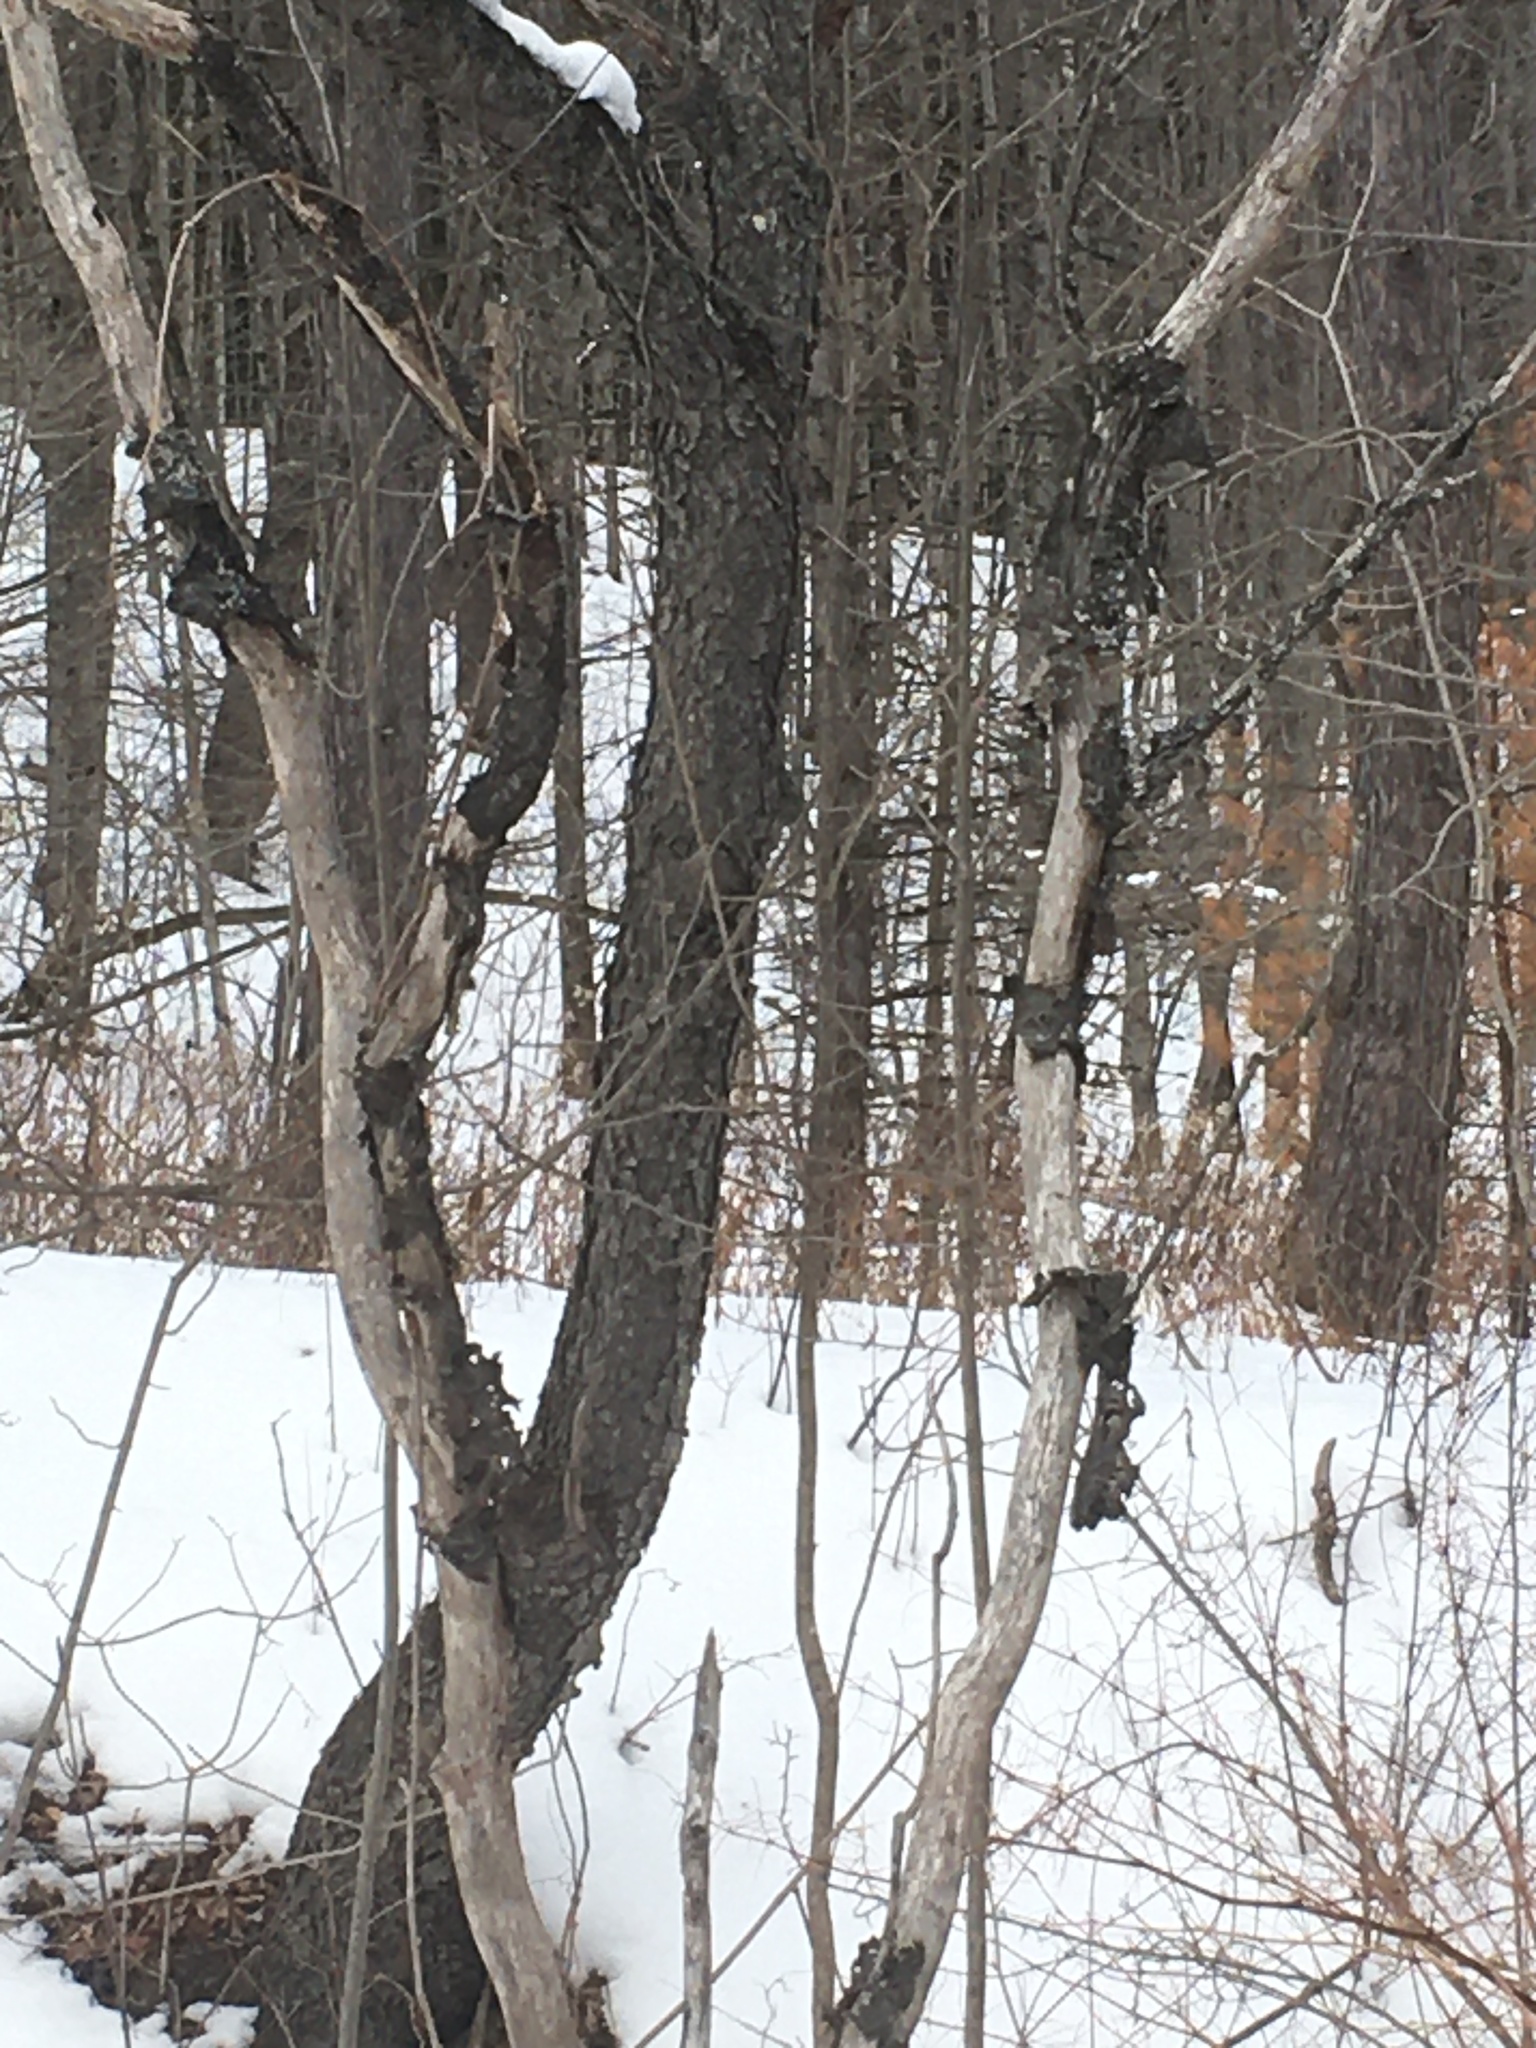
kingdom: Plantae
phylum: Tracheophyta
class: Magnoliopsida
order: Rosales
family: Rosaceae
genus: Prunus
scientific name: Prunus serotina
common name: Black cherry
